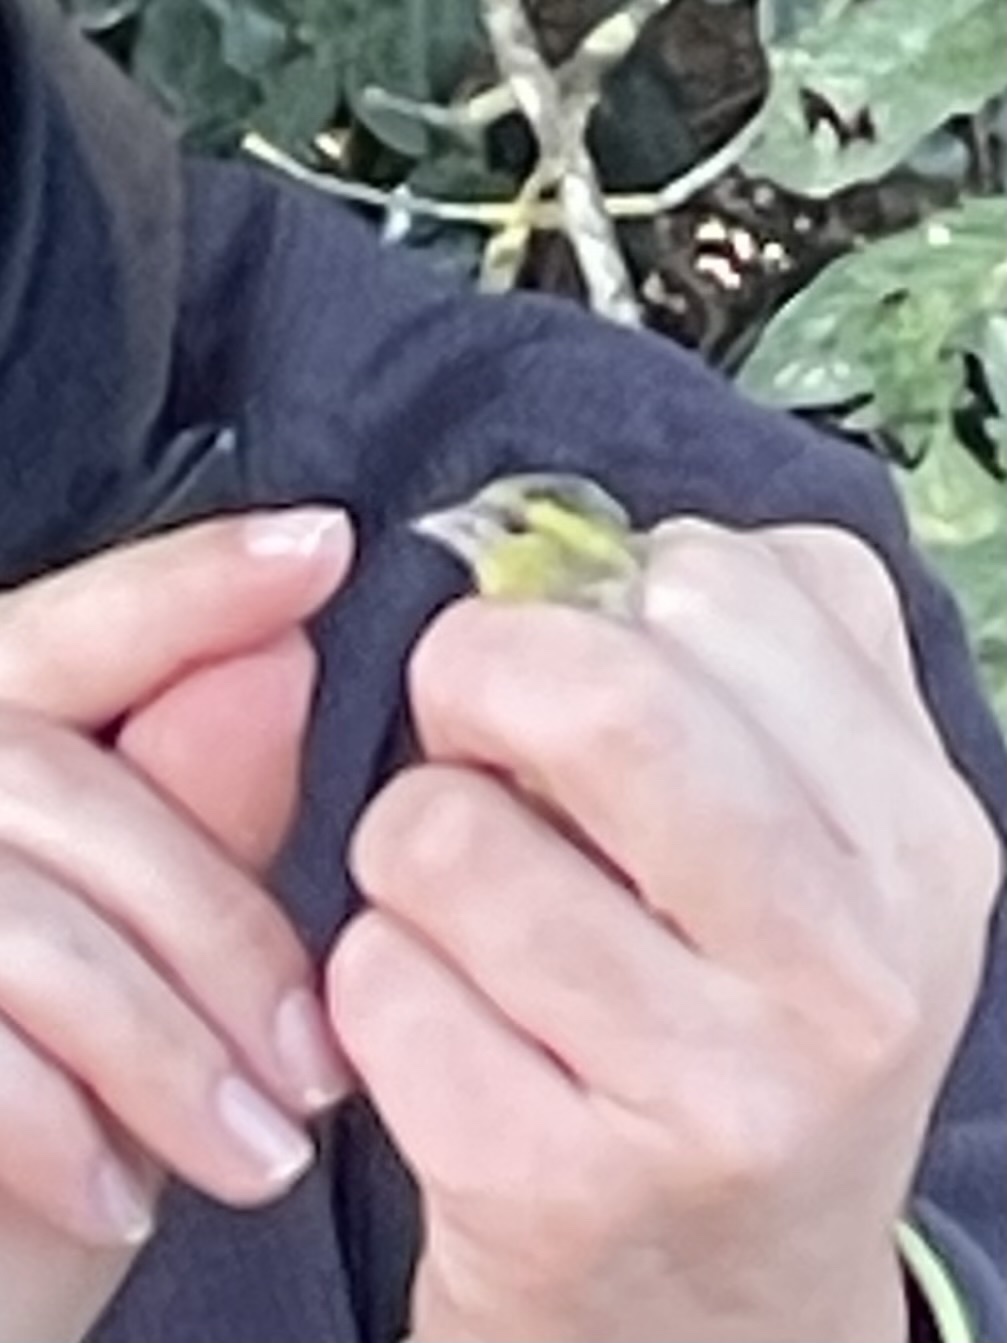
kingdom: Animalia
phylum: Chordata
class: Aves
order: Passeriformes
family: Fringillidae
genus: Spinus
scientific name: Spinus spinus
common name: Eurasian siskin
